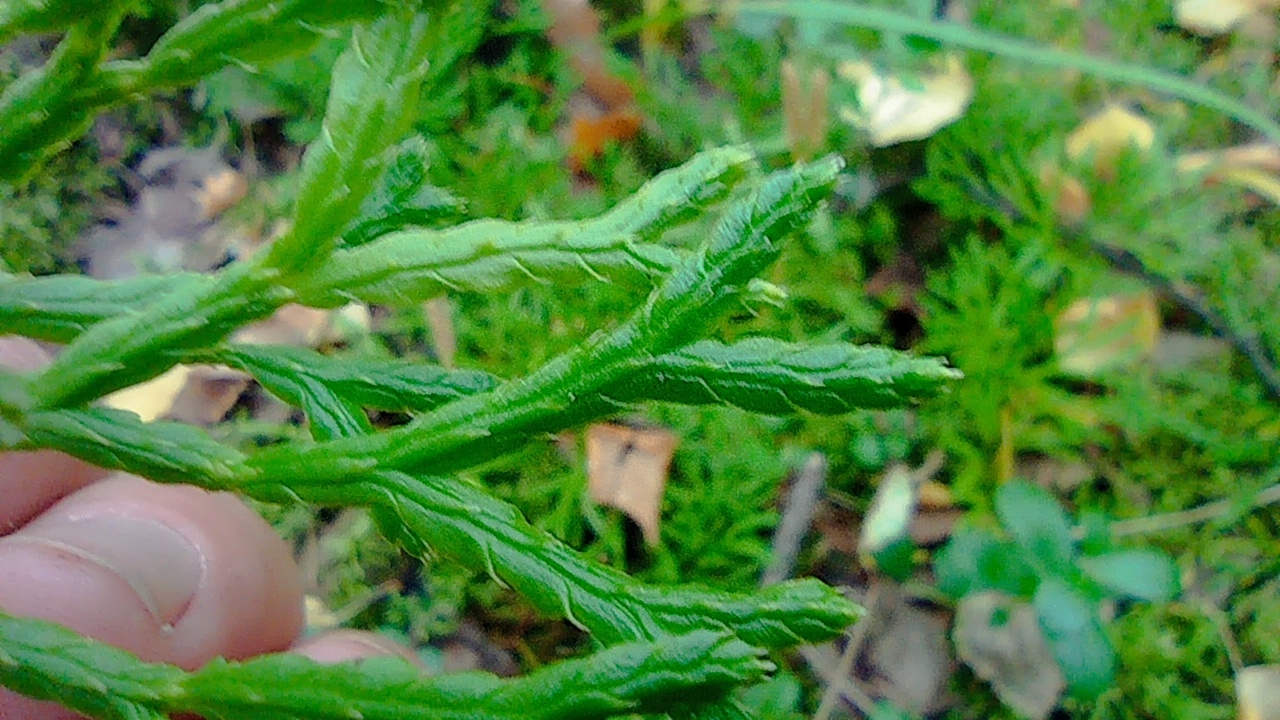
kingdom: Plantae
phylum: Tracheophyta
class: Lycopodiopsida
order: Lycopodiales
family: Lycopodiaceae
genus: Diphasiastrum
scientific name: Diphasiastrum complanatum
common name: Northern running-pine
